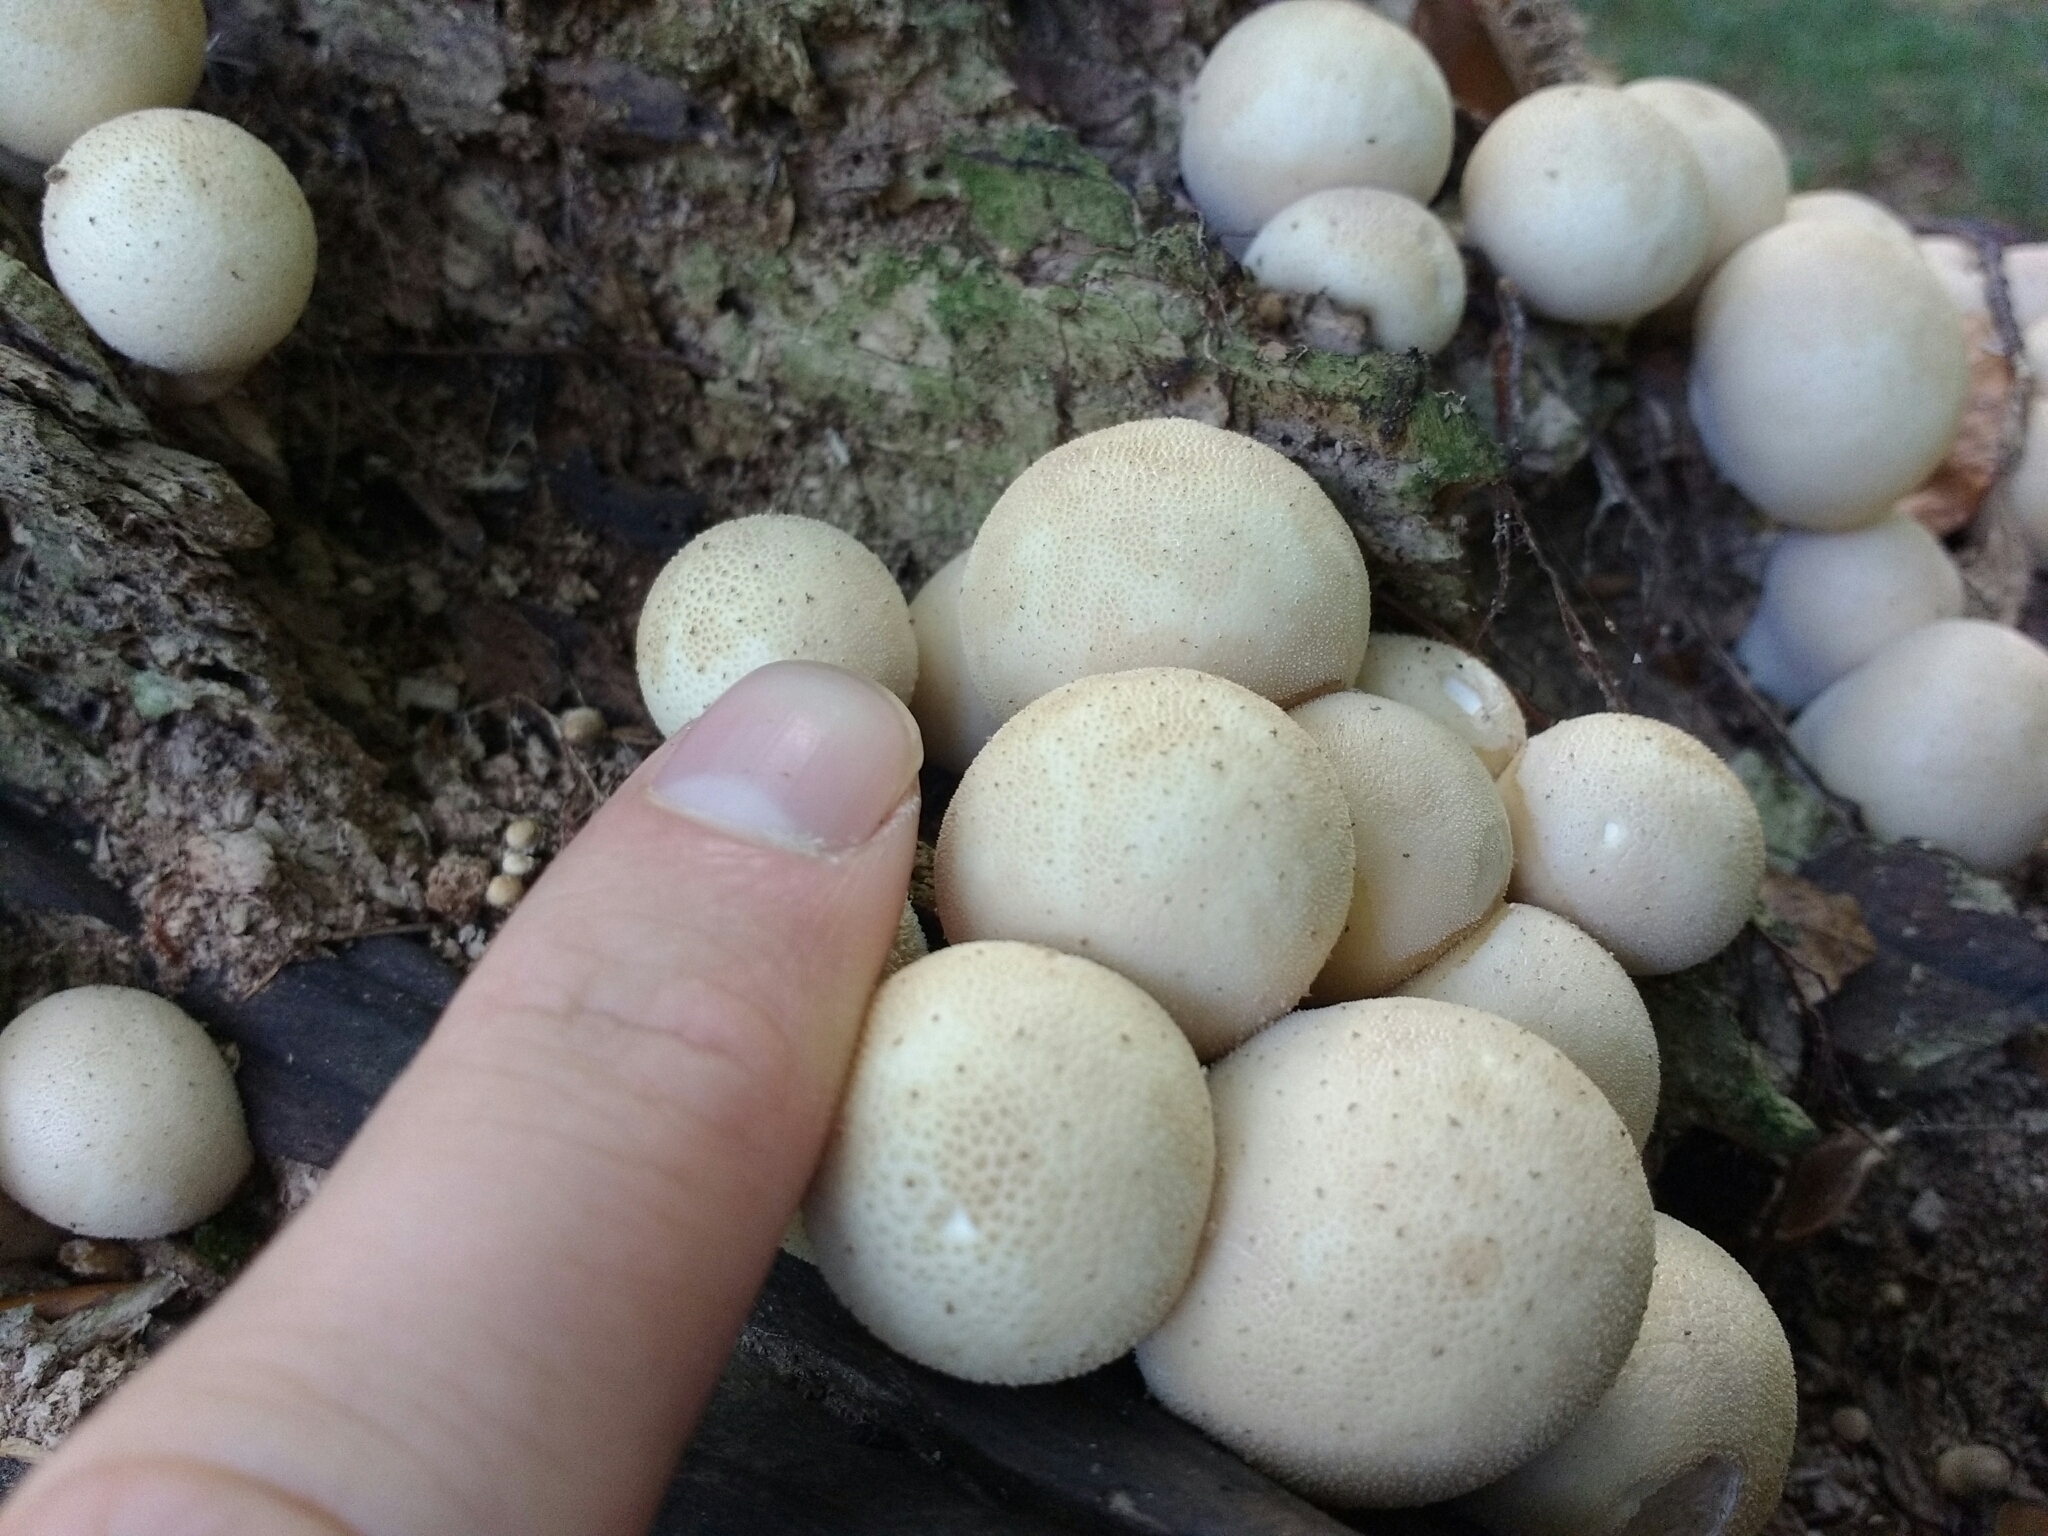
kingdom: Fungi
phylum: Basidiomycota
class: Agaricomycetes
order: Agaricales
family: Lycoperdaceae
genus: Apioperdon
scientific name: Apioperdon pyriforme
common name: Pear-shaped puffball
